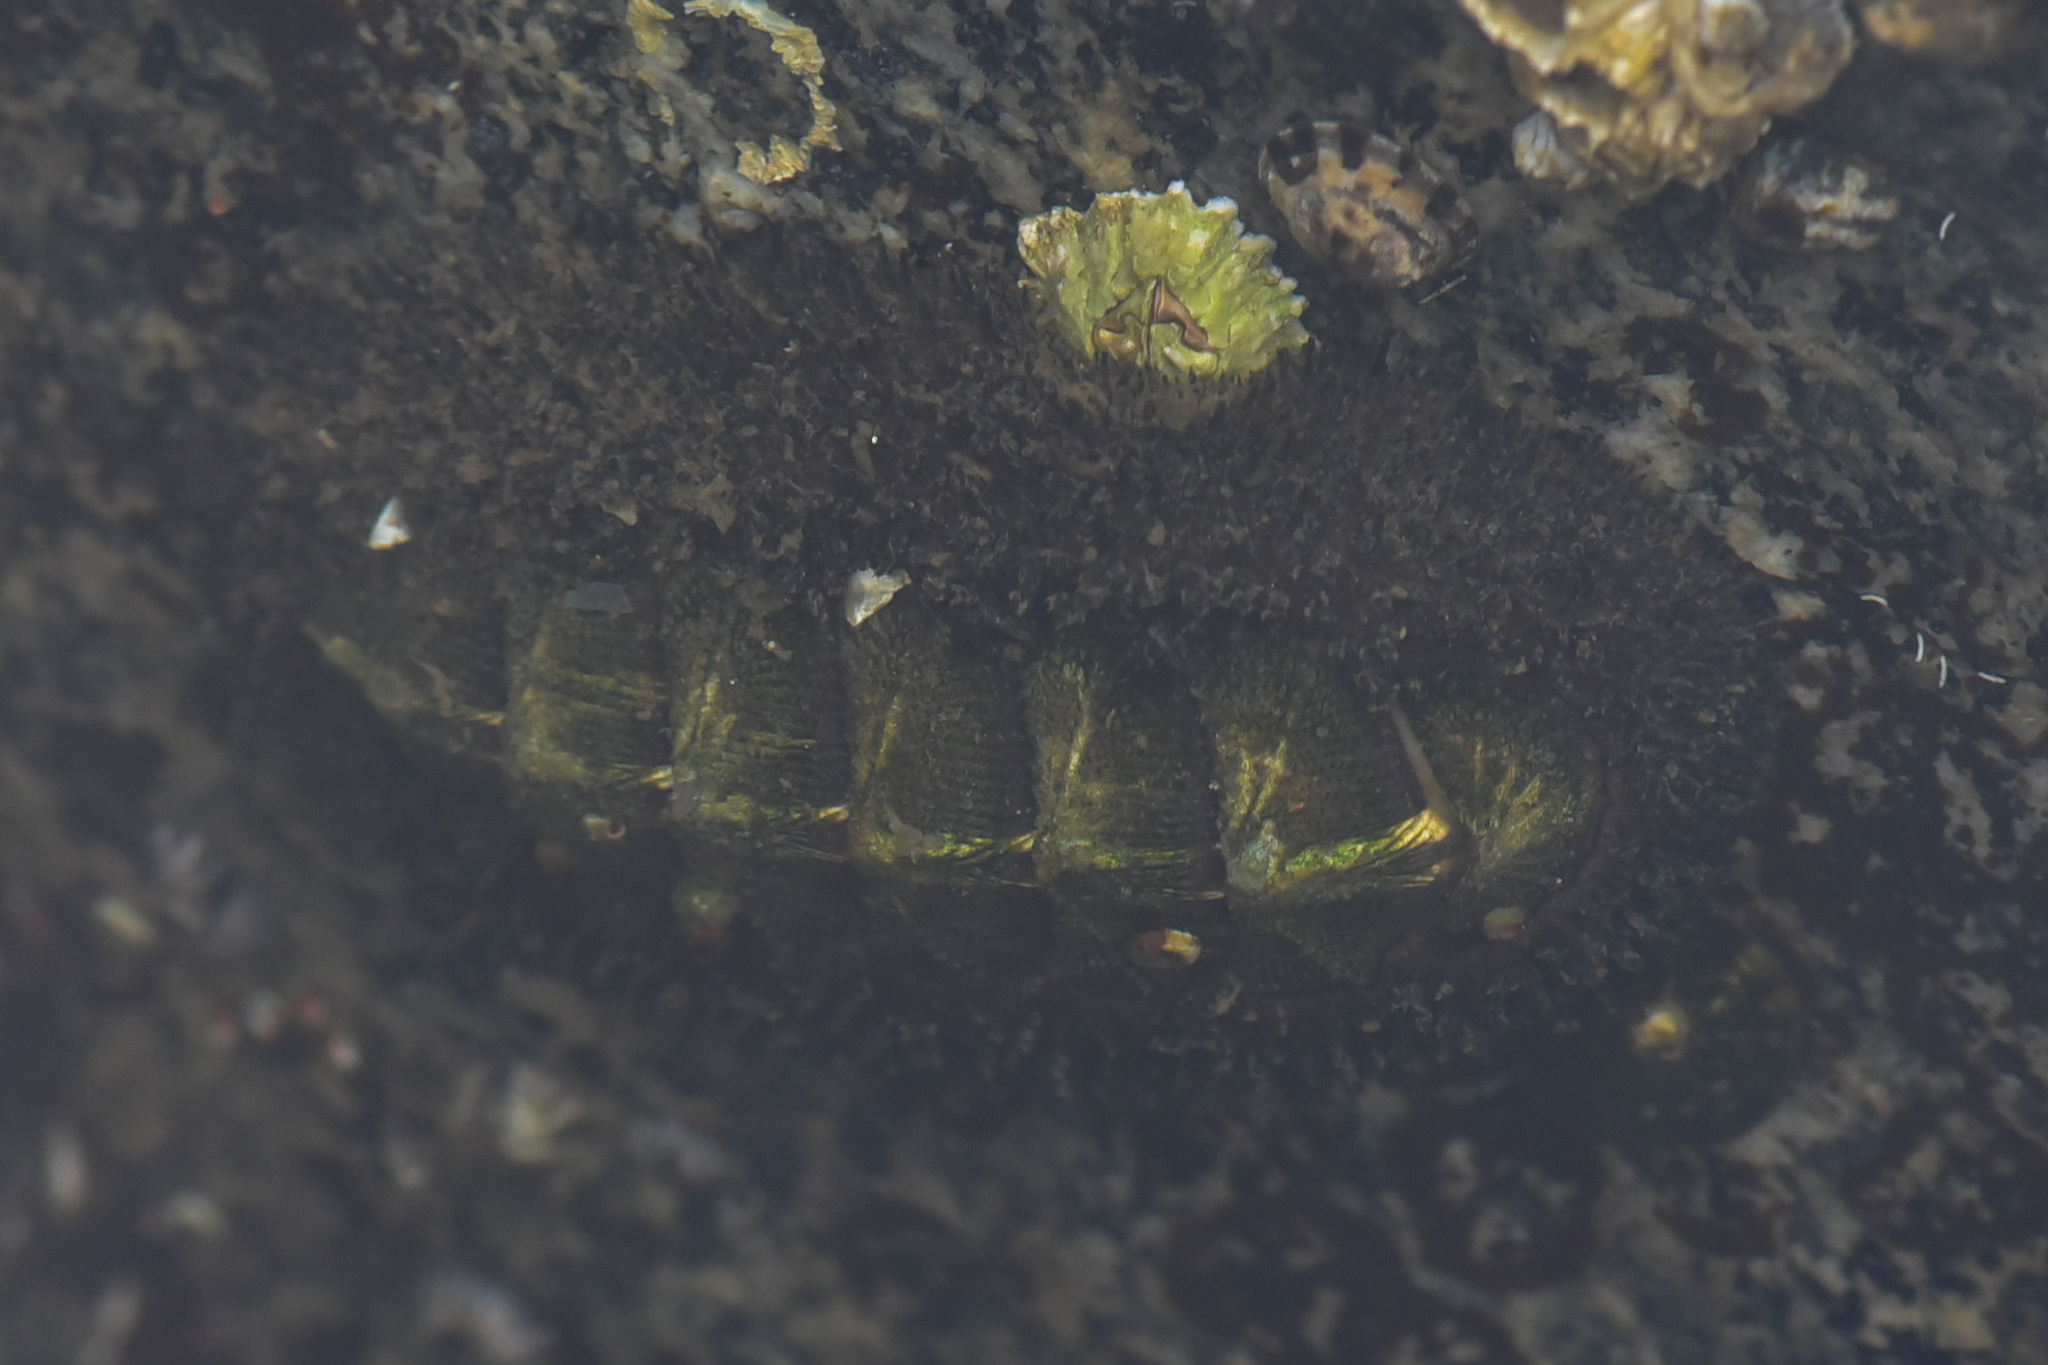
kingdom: Animalia
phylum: Mollusca
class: Polyplacophora
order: Chitonida
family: Mopaliidae
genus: Mopalia
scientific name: Mopalia muscosa
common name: Mossy chiton
